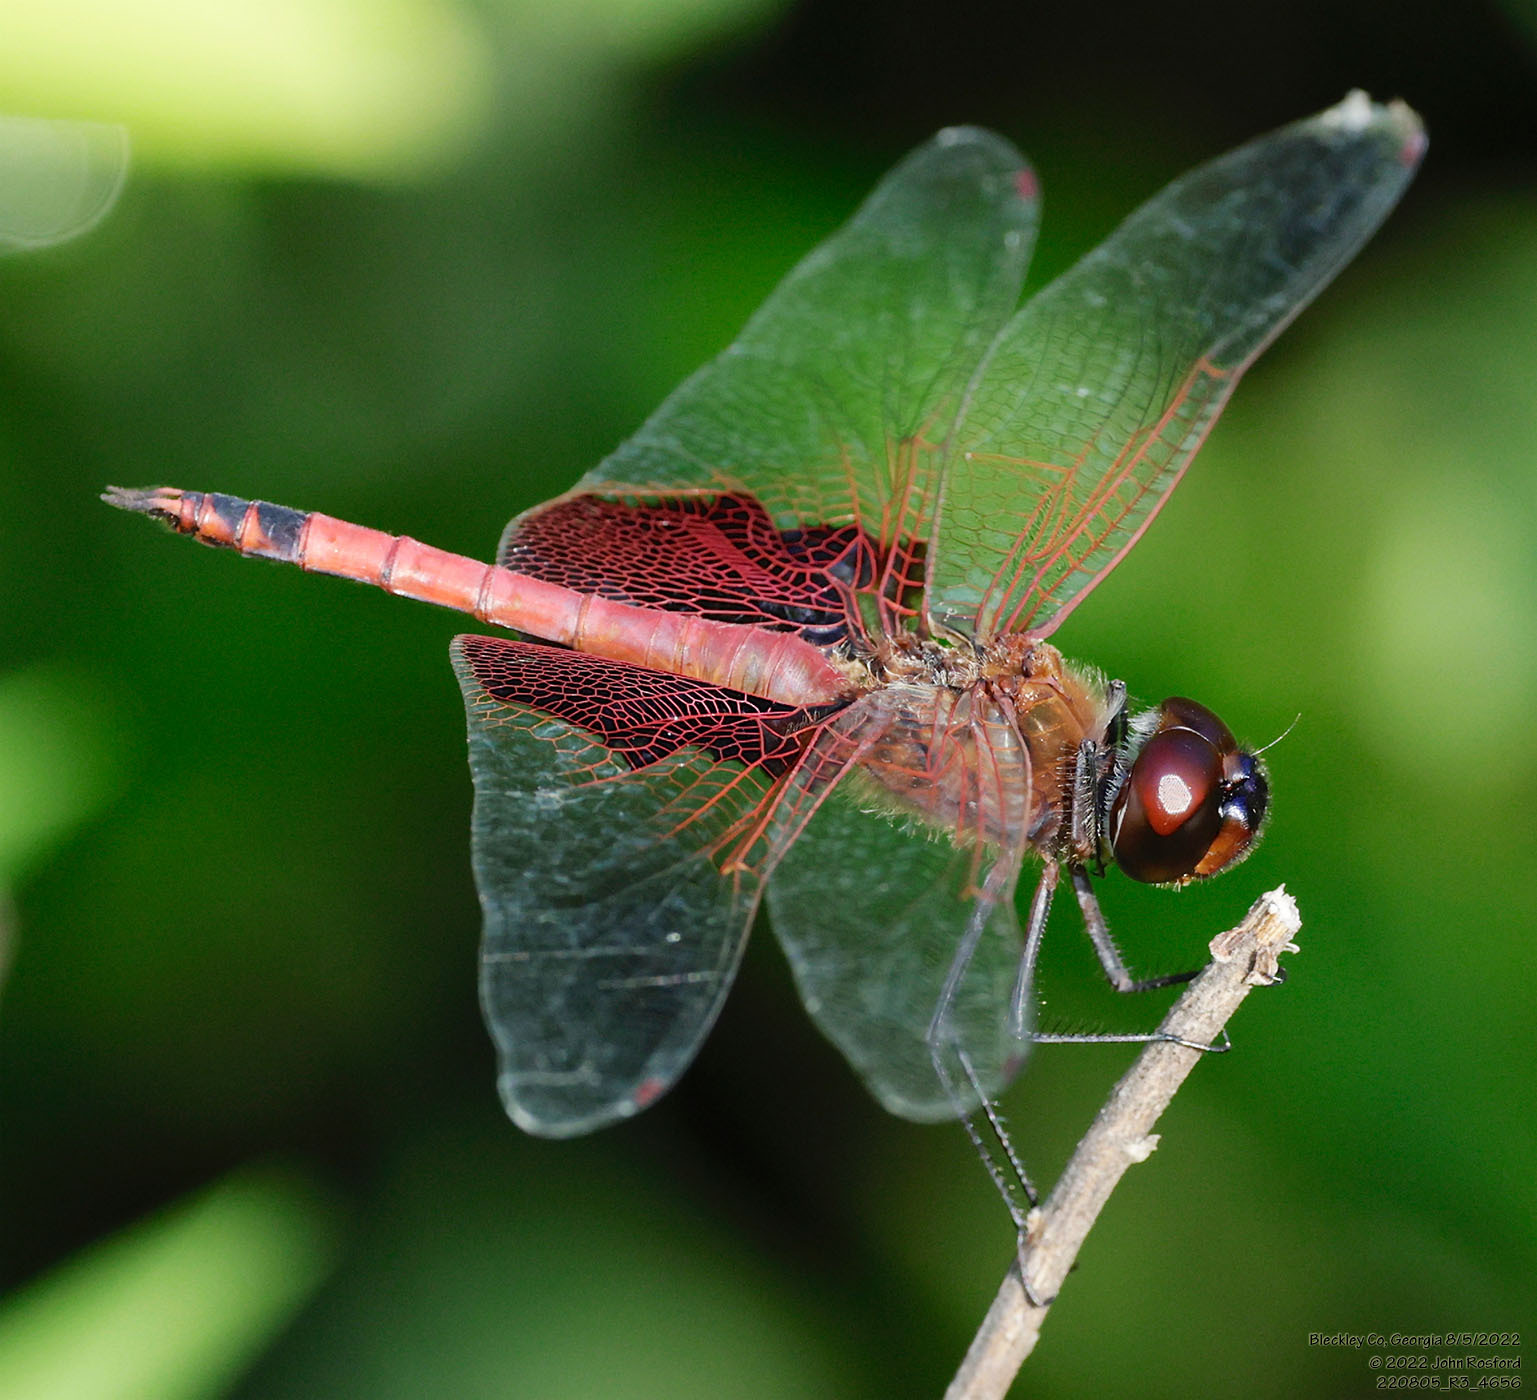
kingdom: Animalia
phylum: Arthropoda
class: Insecta
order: Odonata
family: Libellulidae
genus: Tramea
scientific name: Tramea carolina
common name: Carolina saddlebags
